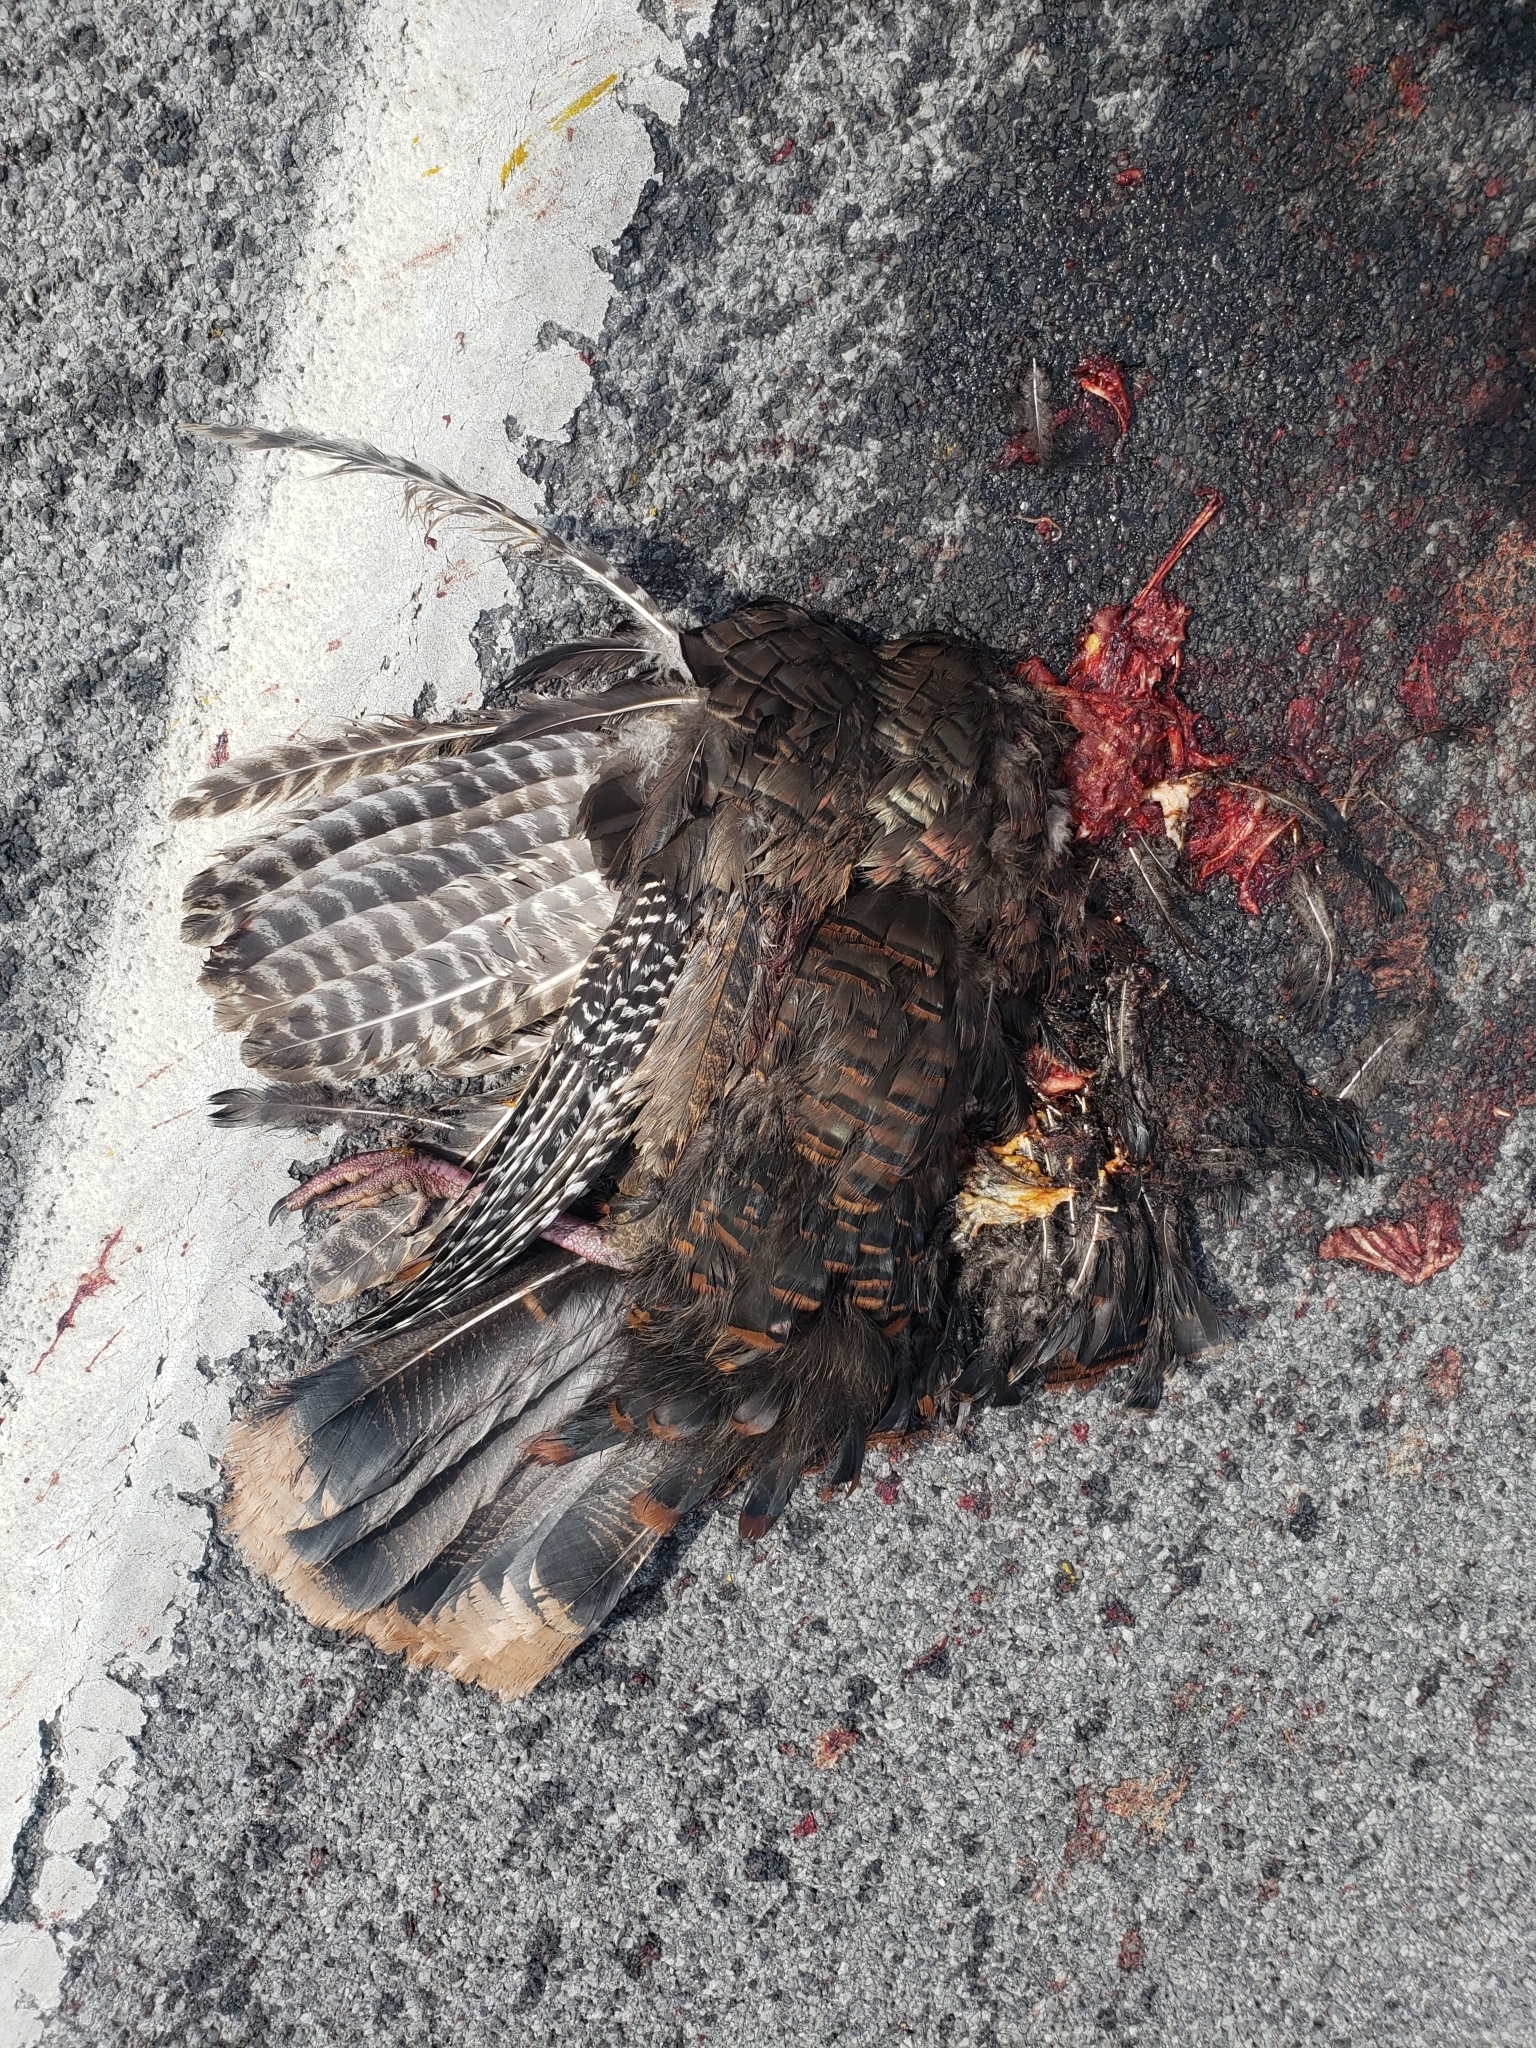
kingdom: Animalia
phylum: Chordata
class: Aves
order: Galliformes
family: Phasianidae
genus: Meleagris
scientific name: Meleagris gallopavo
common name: Wild turkey
